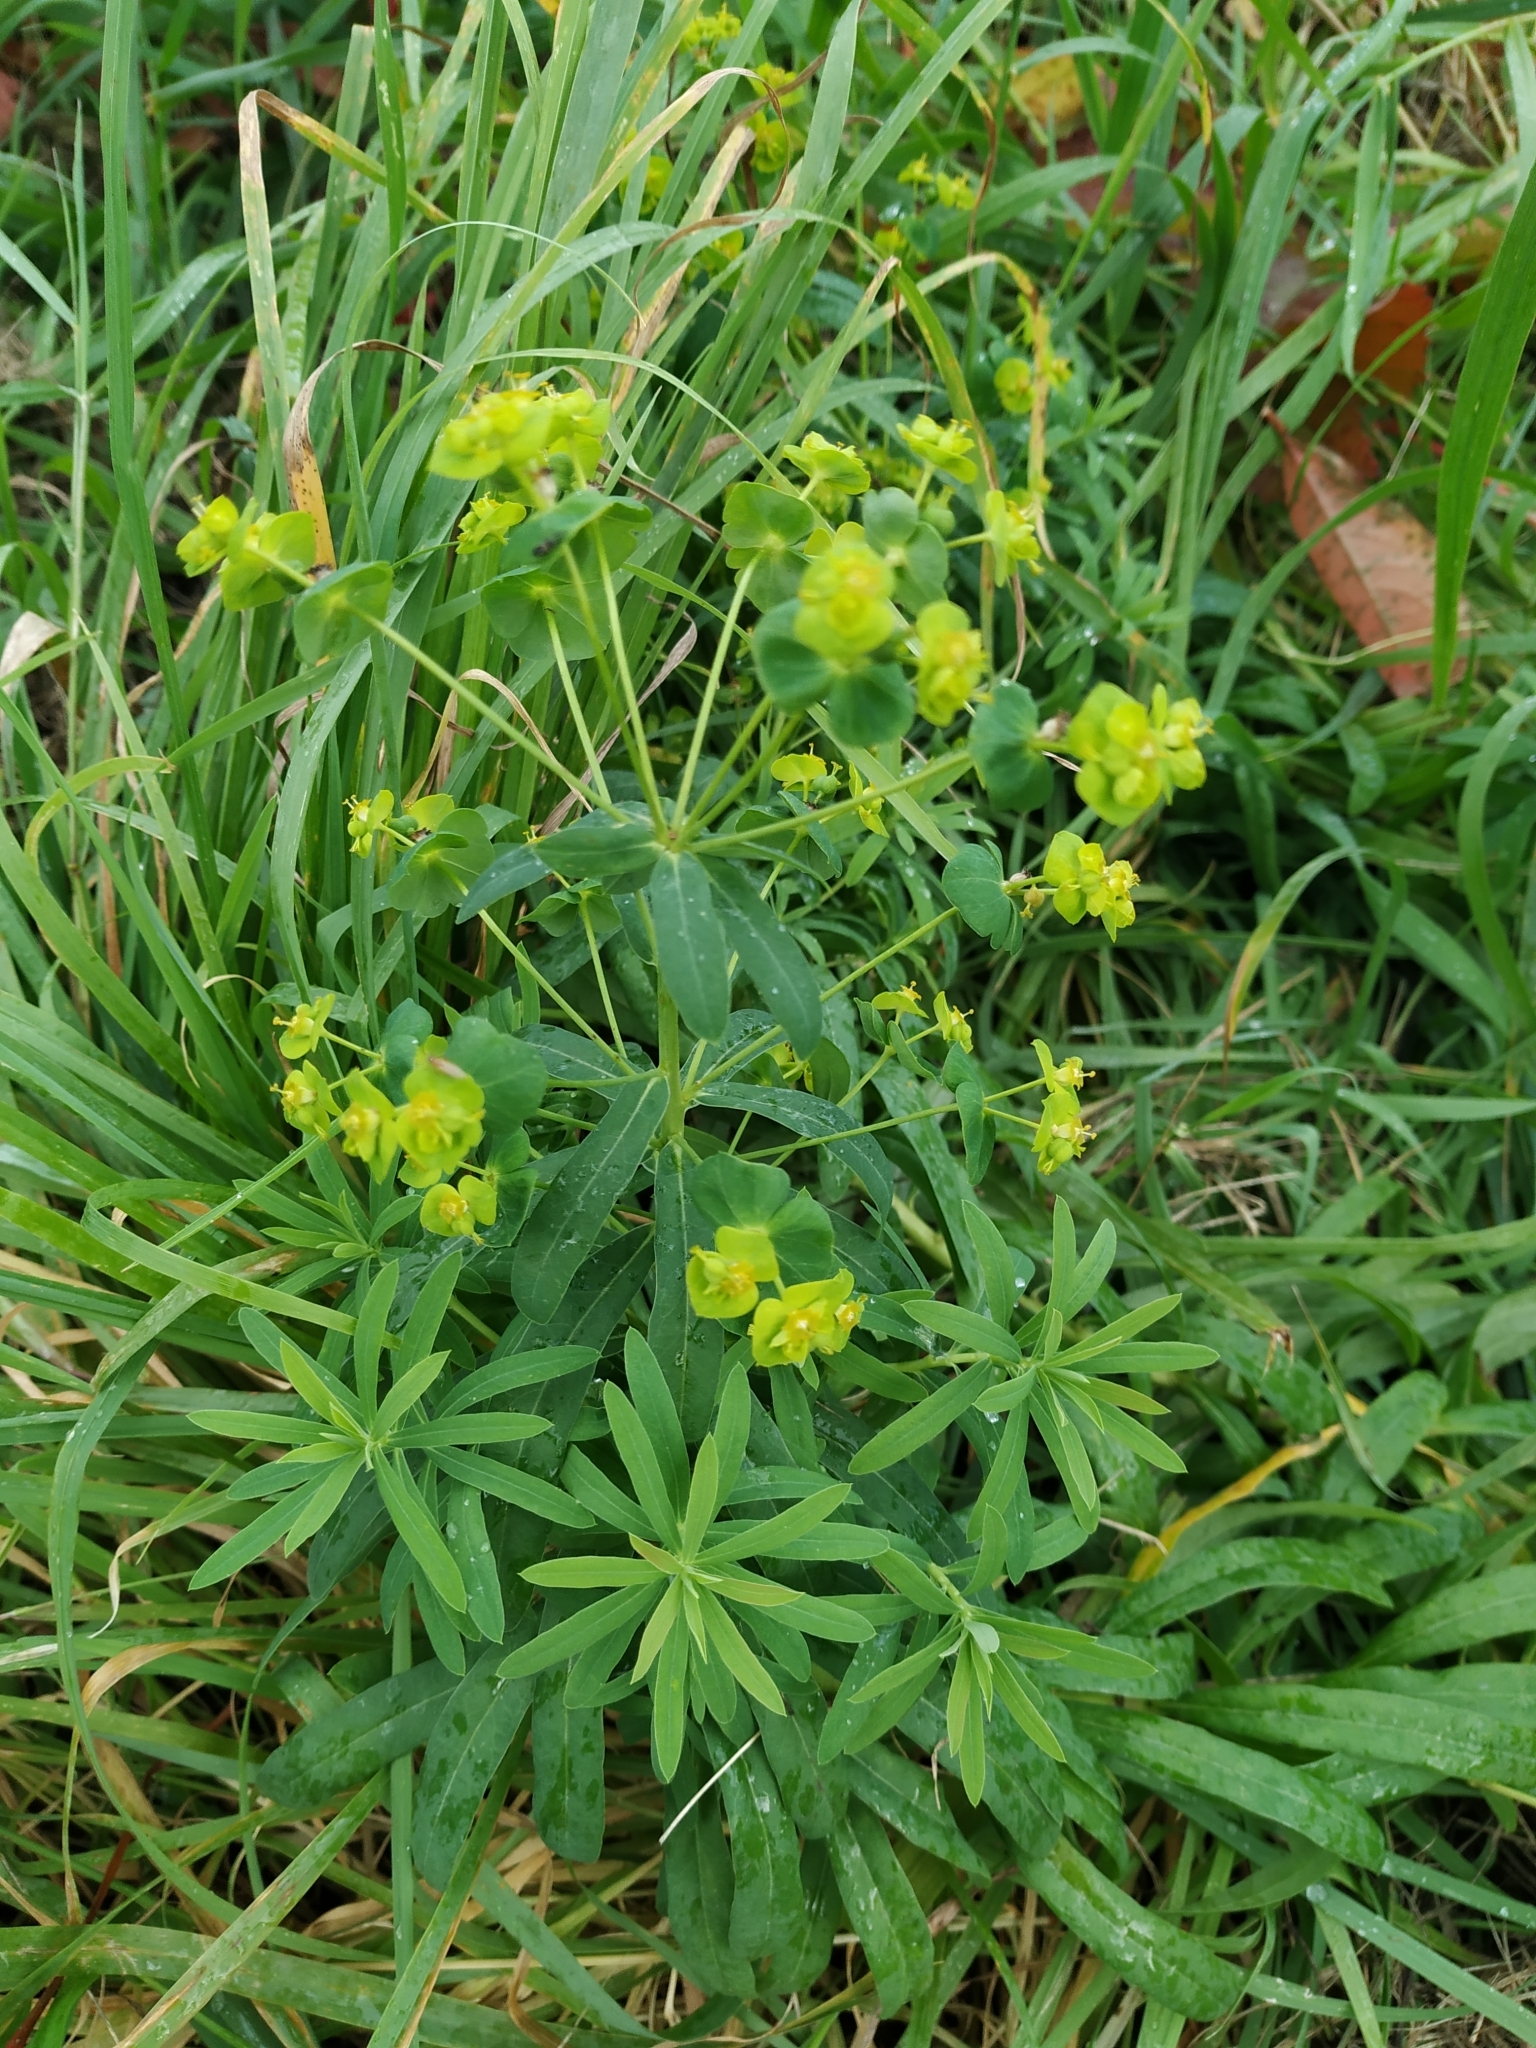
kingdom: Plantae
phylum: Tracheophyta
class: Magnoliopsida
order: Malpighiales
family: Euphorbiaceae
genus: Euphorbia
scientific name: Euphorbia esula
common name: Leafy spurge
